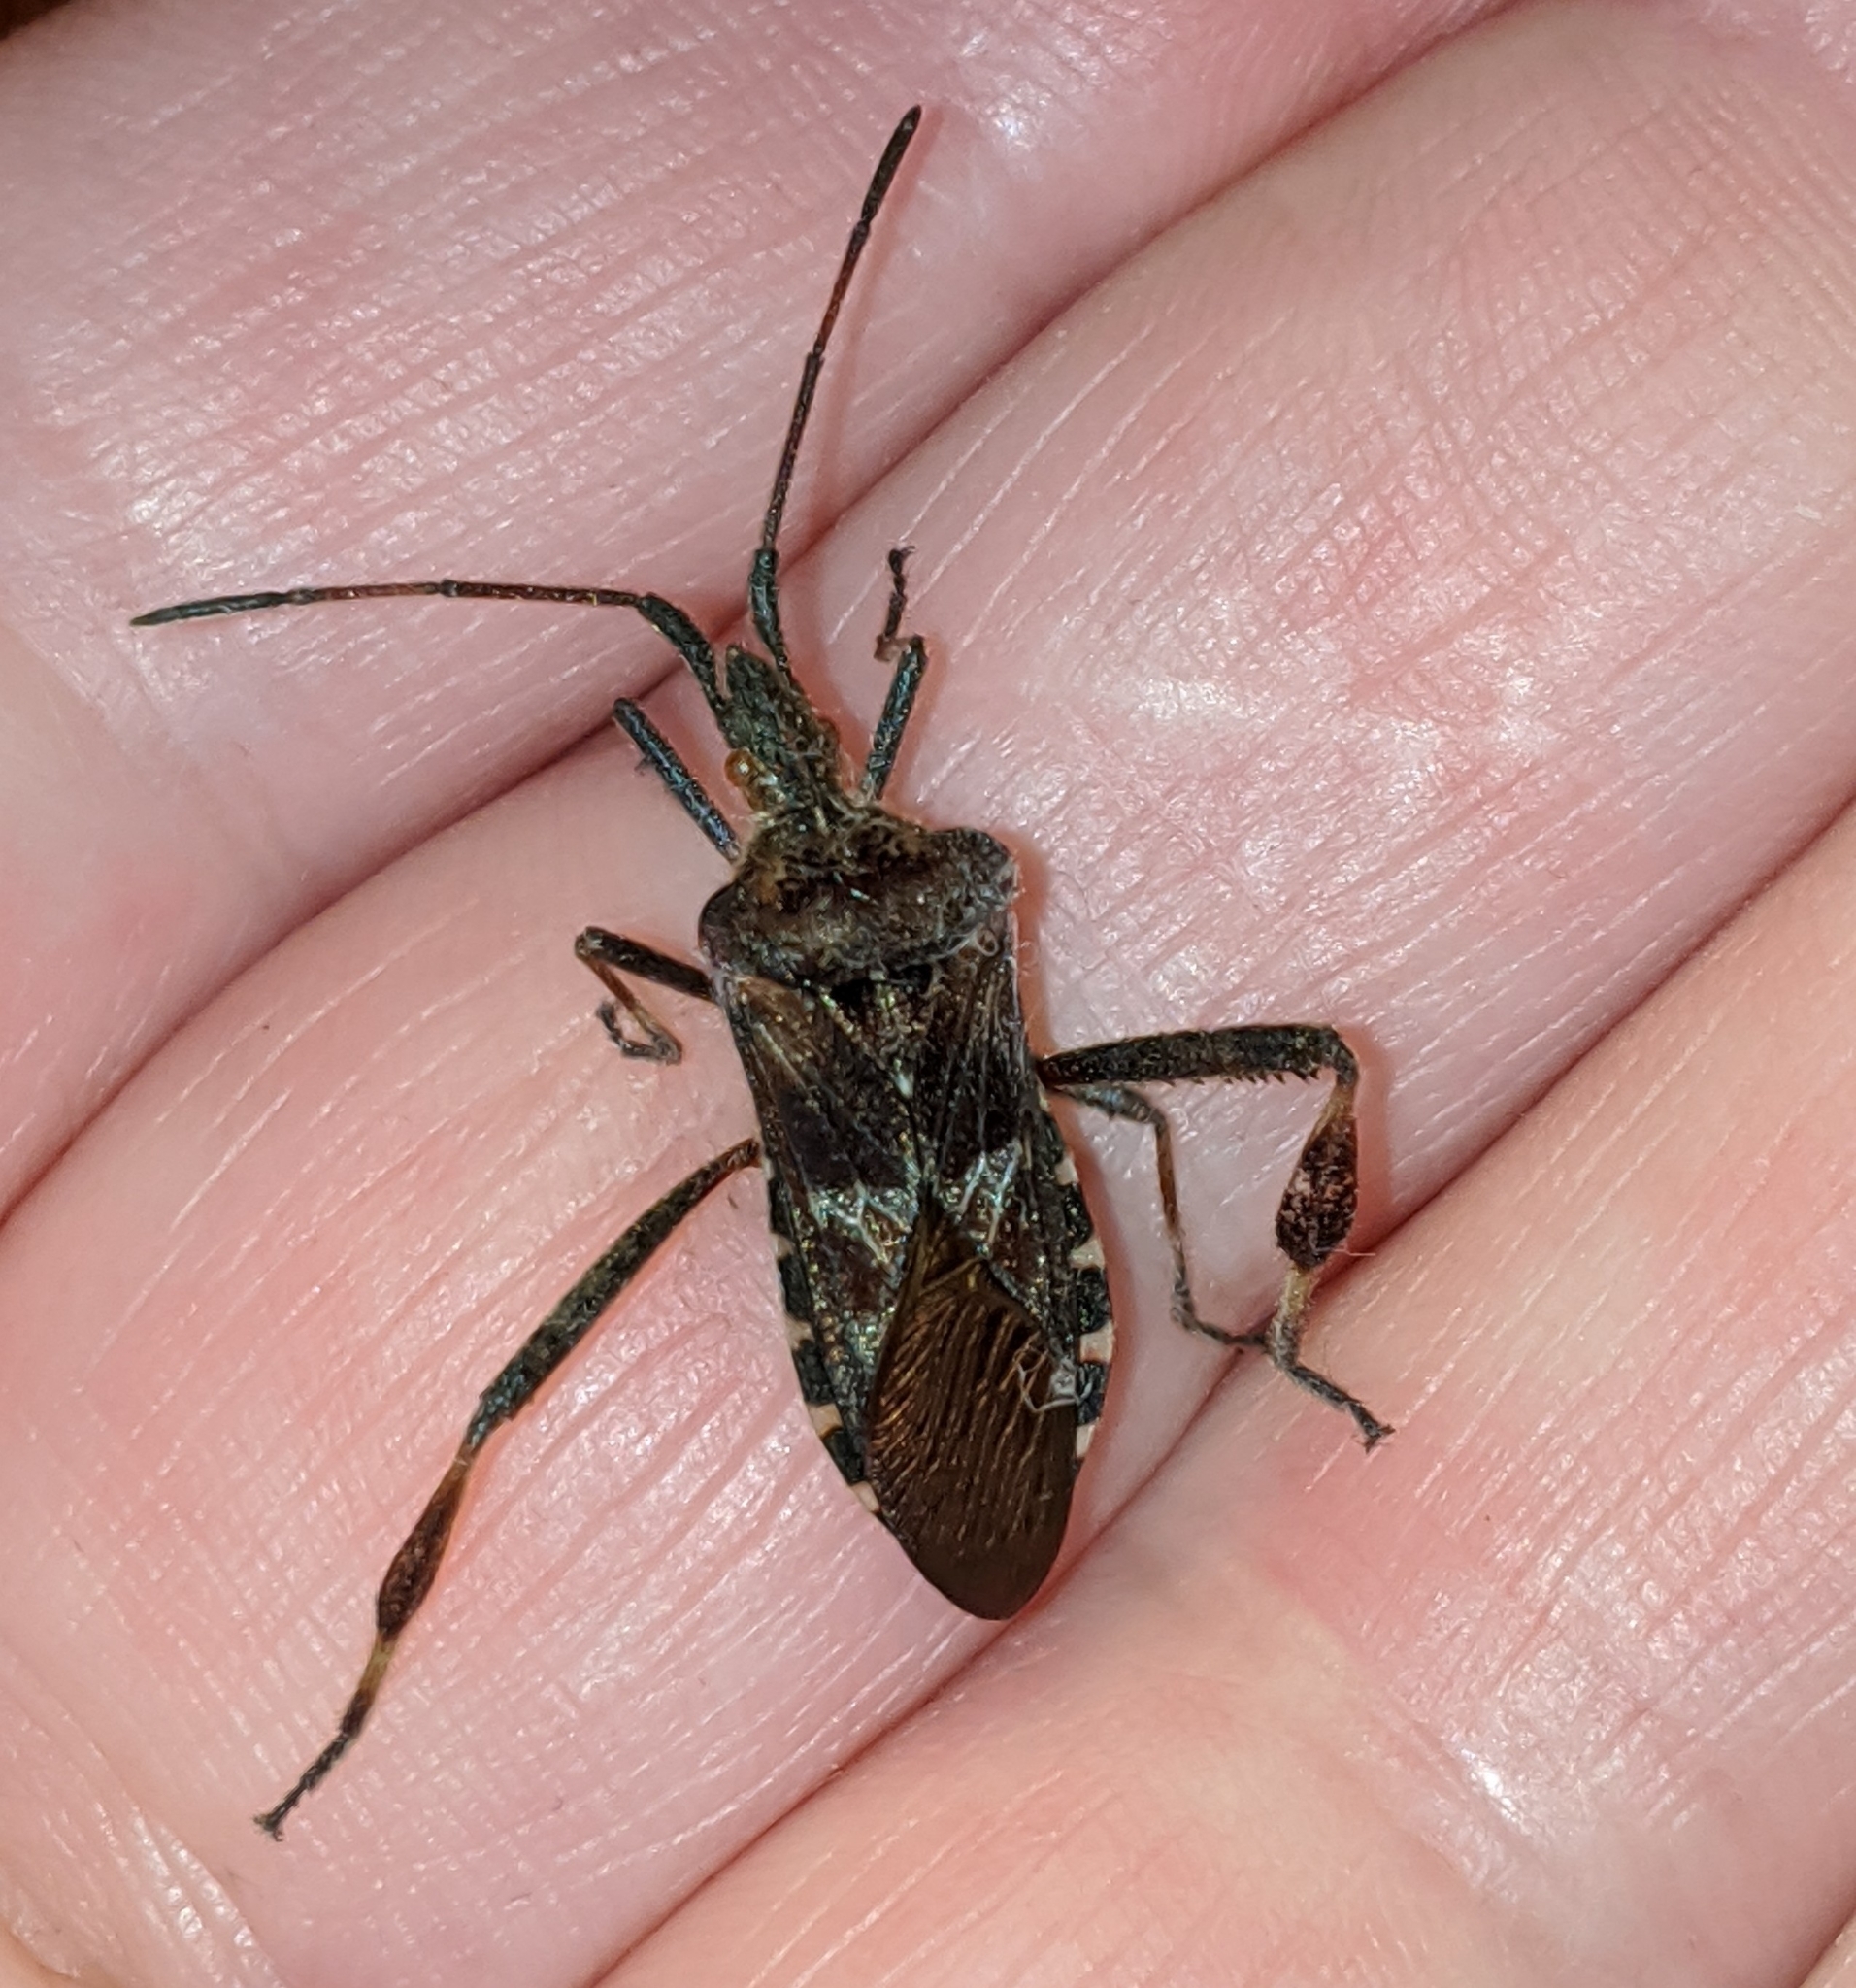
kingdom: Animalia
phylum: Arthropoda
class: Insecta
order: Hemiptera
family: Coreidae
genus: Leptoglossus
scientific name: Leptoglossus occidentalis
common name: Western conifer-seed bug
